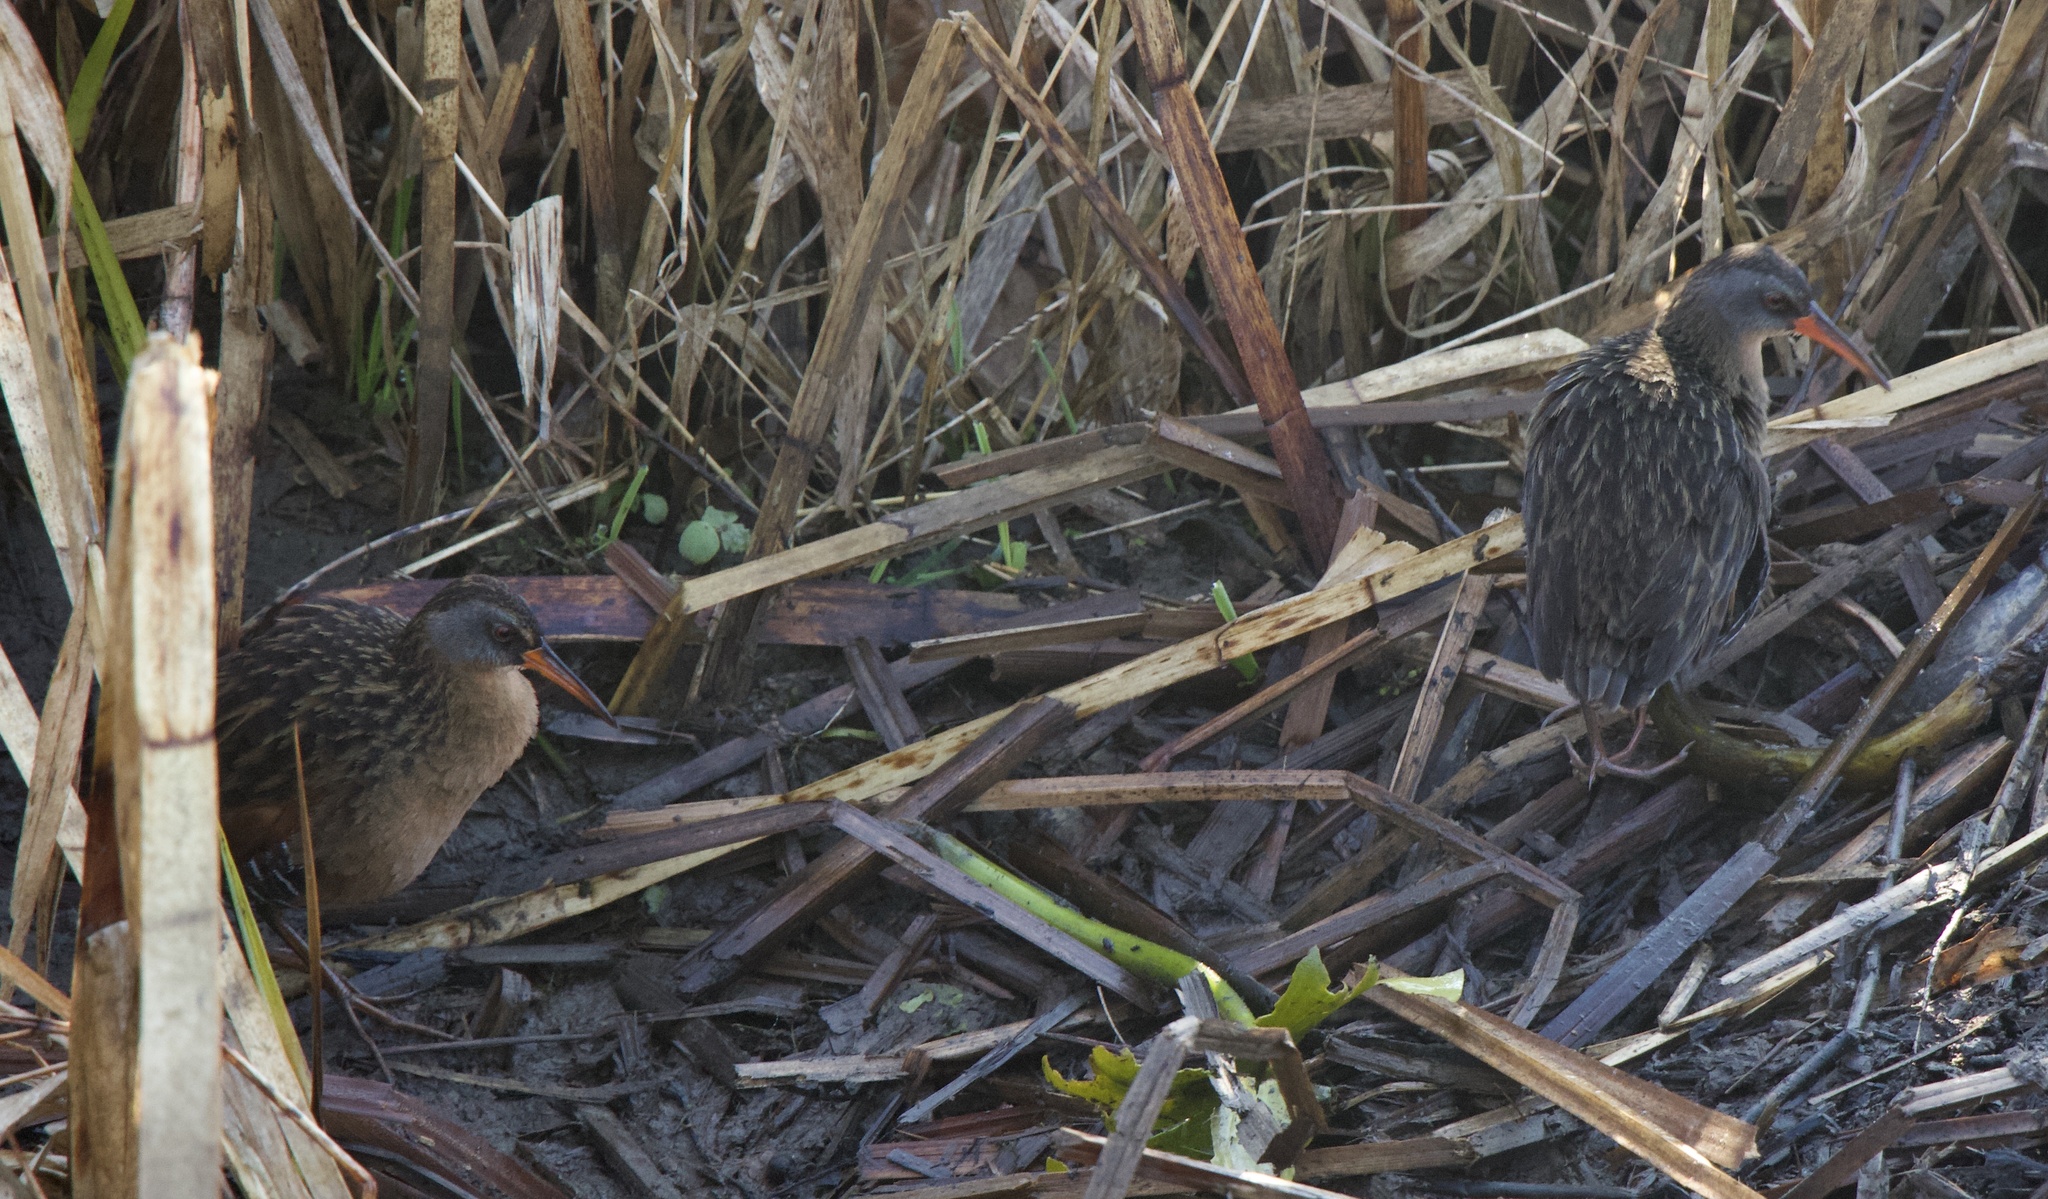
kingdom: Animalia
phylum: Chordata
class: Aves
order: Gruiformes
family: Rallidae
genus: Rallus
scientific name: Rallus limicola
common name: Virginia rail
